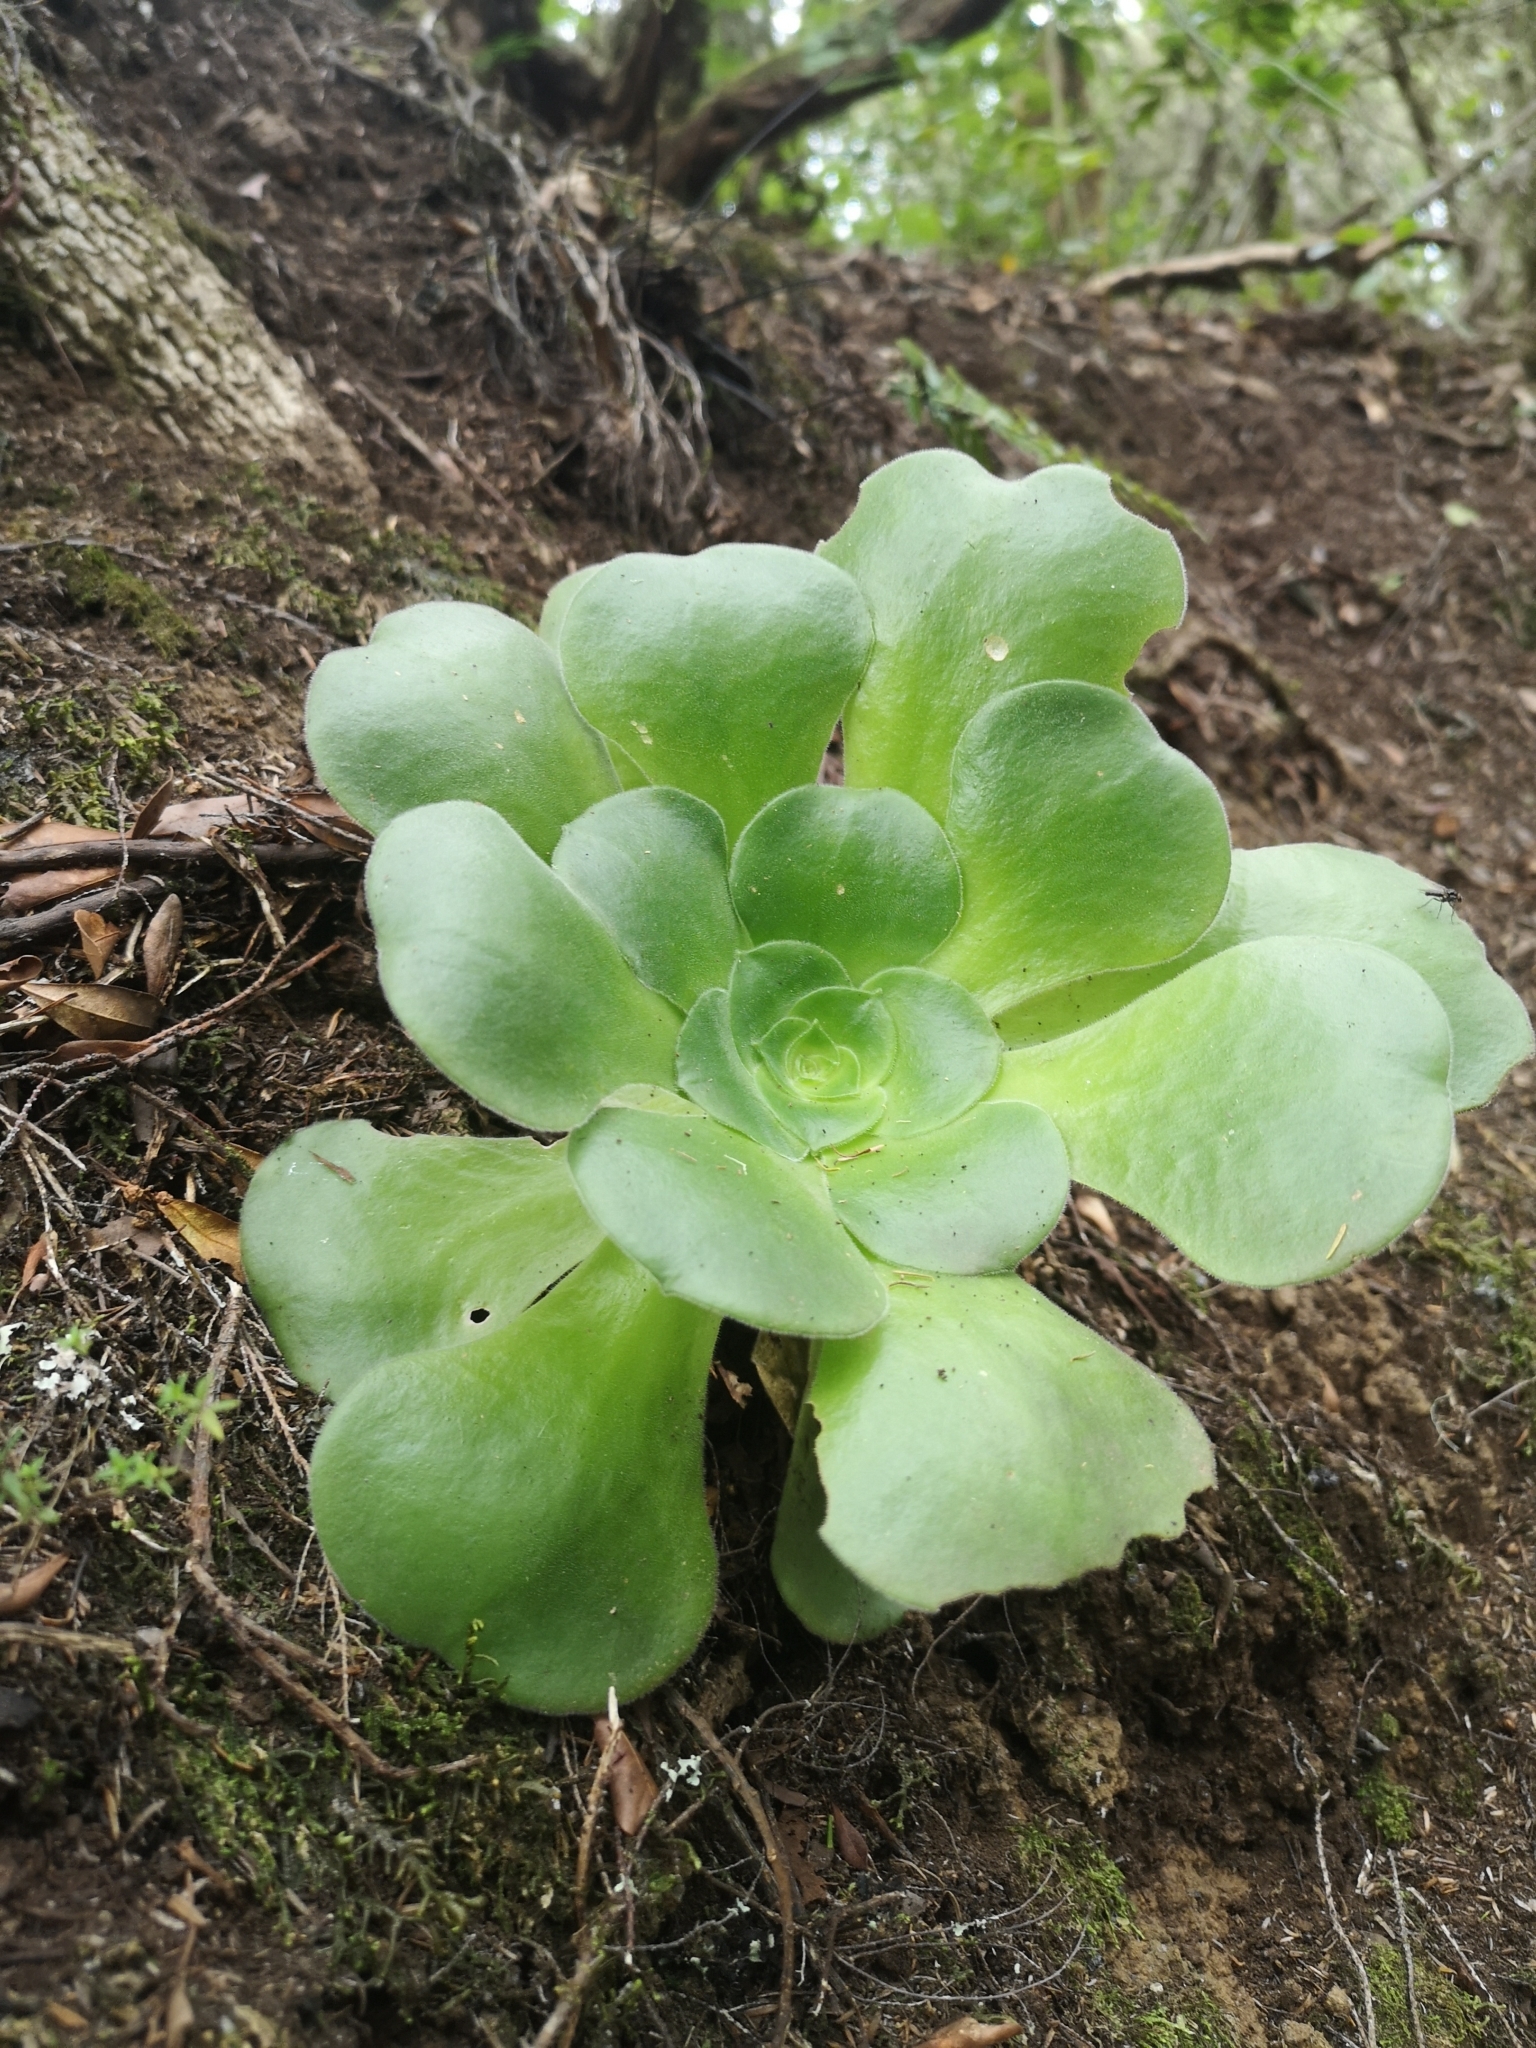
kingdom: Plantae
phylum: Tracheophyta
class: Magnoliopsida
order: Saxifragales
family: Crassulaceae
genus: Aeonium
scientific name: Aeonium canariense
